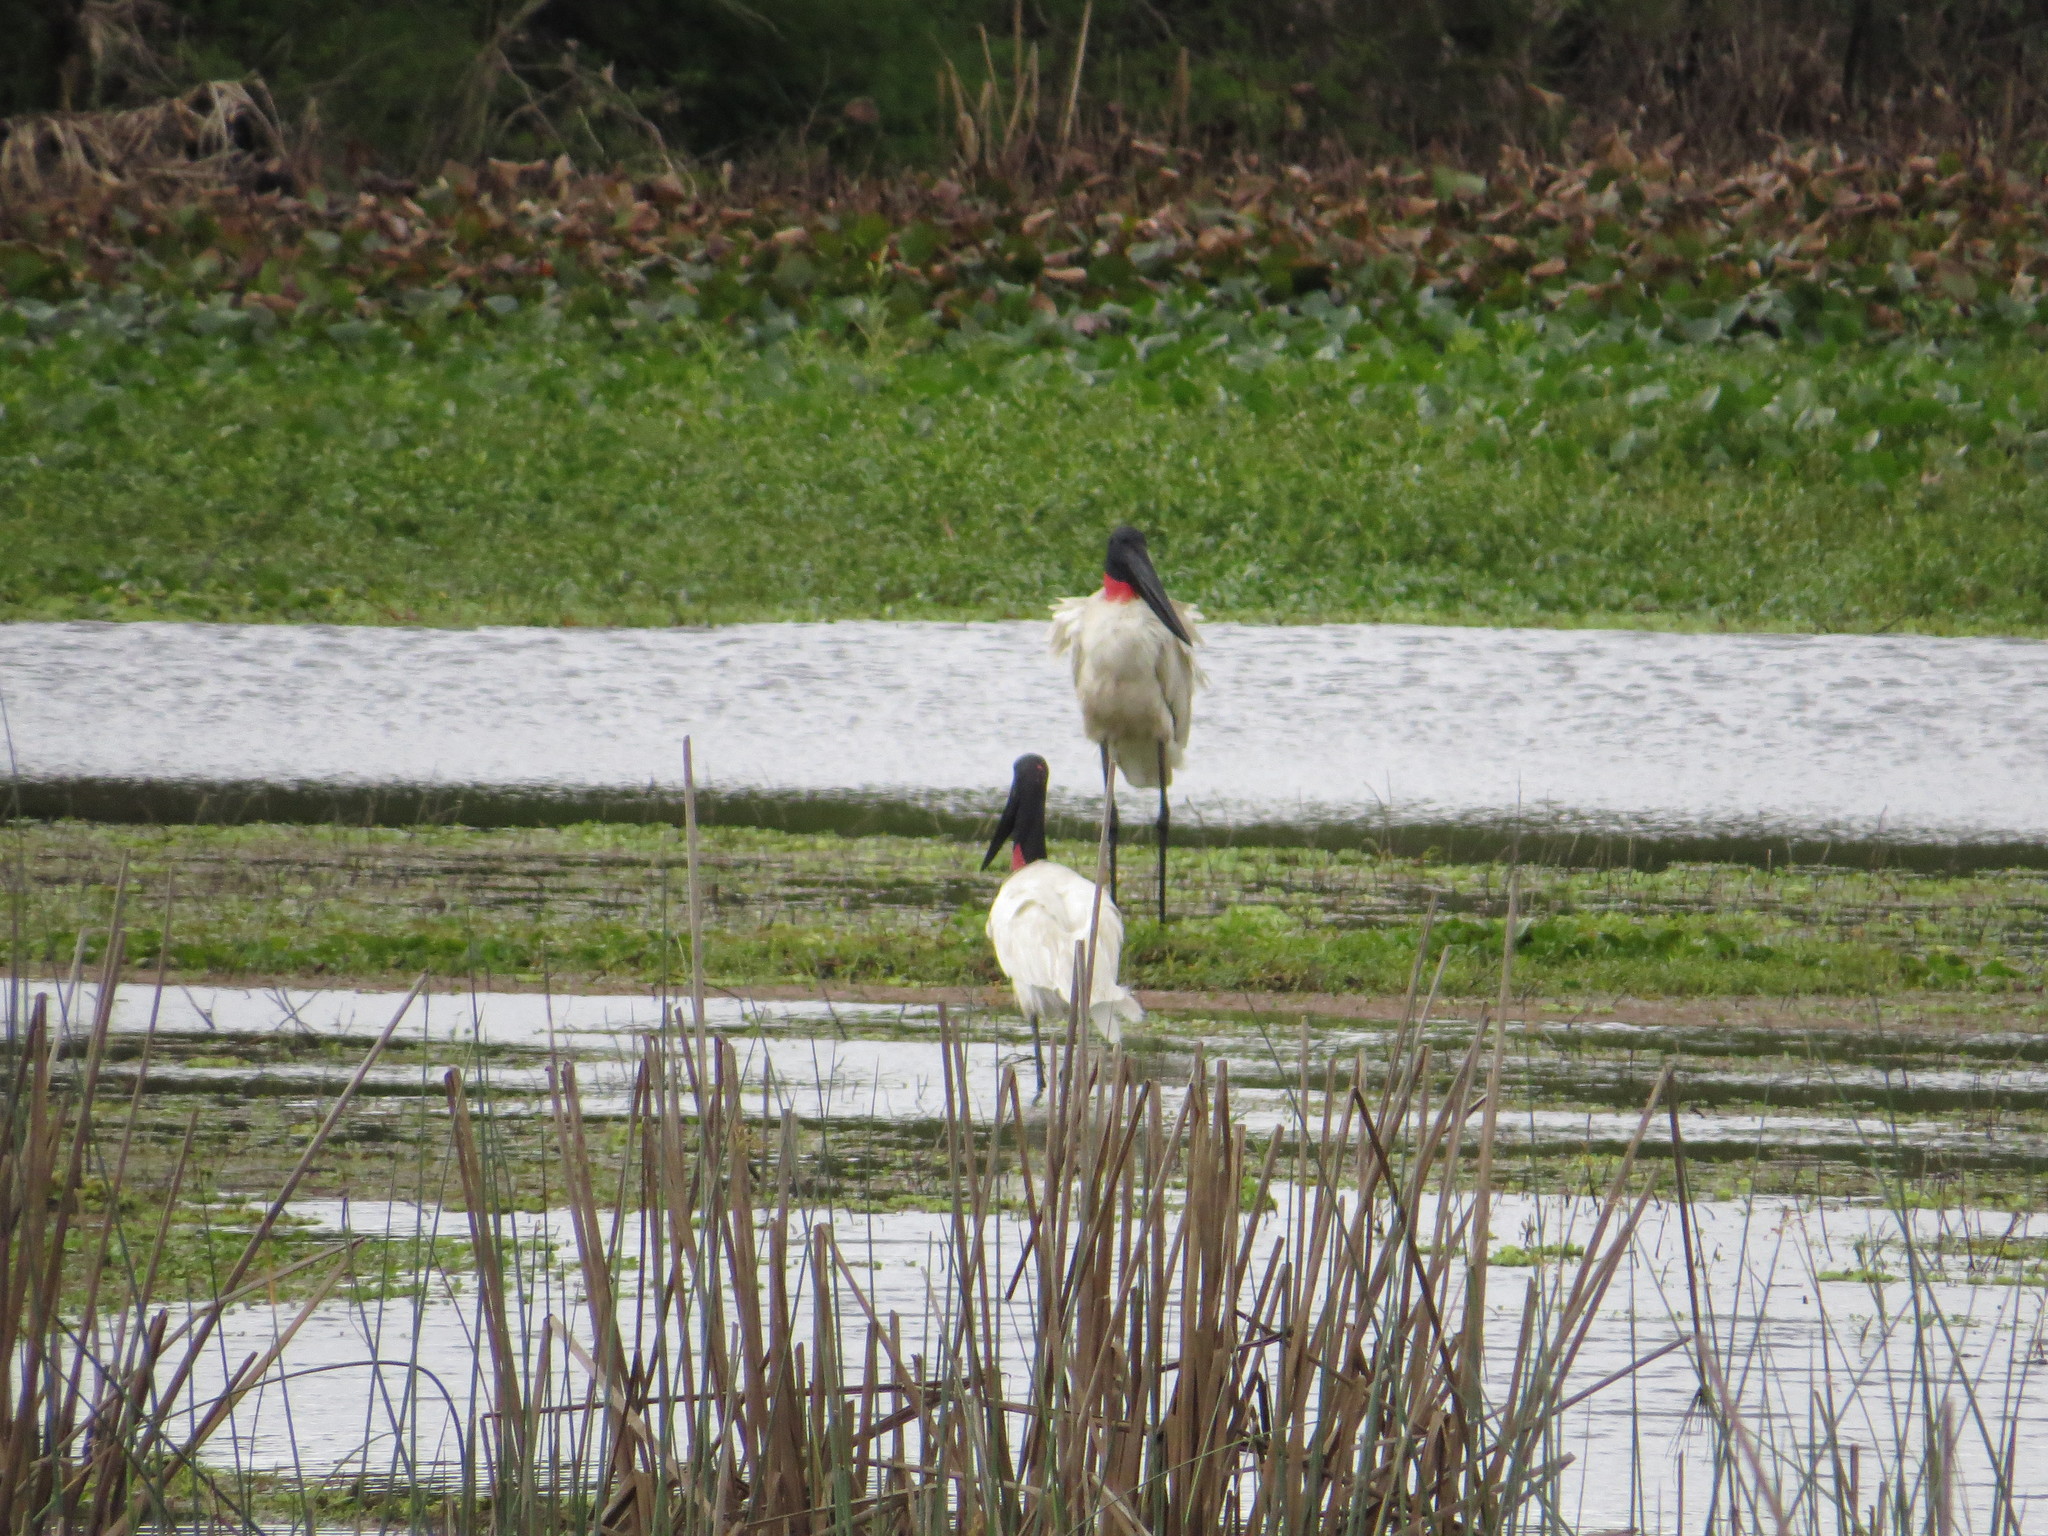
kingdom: Animalia
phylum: Chordata
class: Aves
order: Ciconiiformes
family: Ciconiidae
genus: Jabiru
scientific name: Jabiru mycteria
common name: Jabiru
